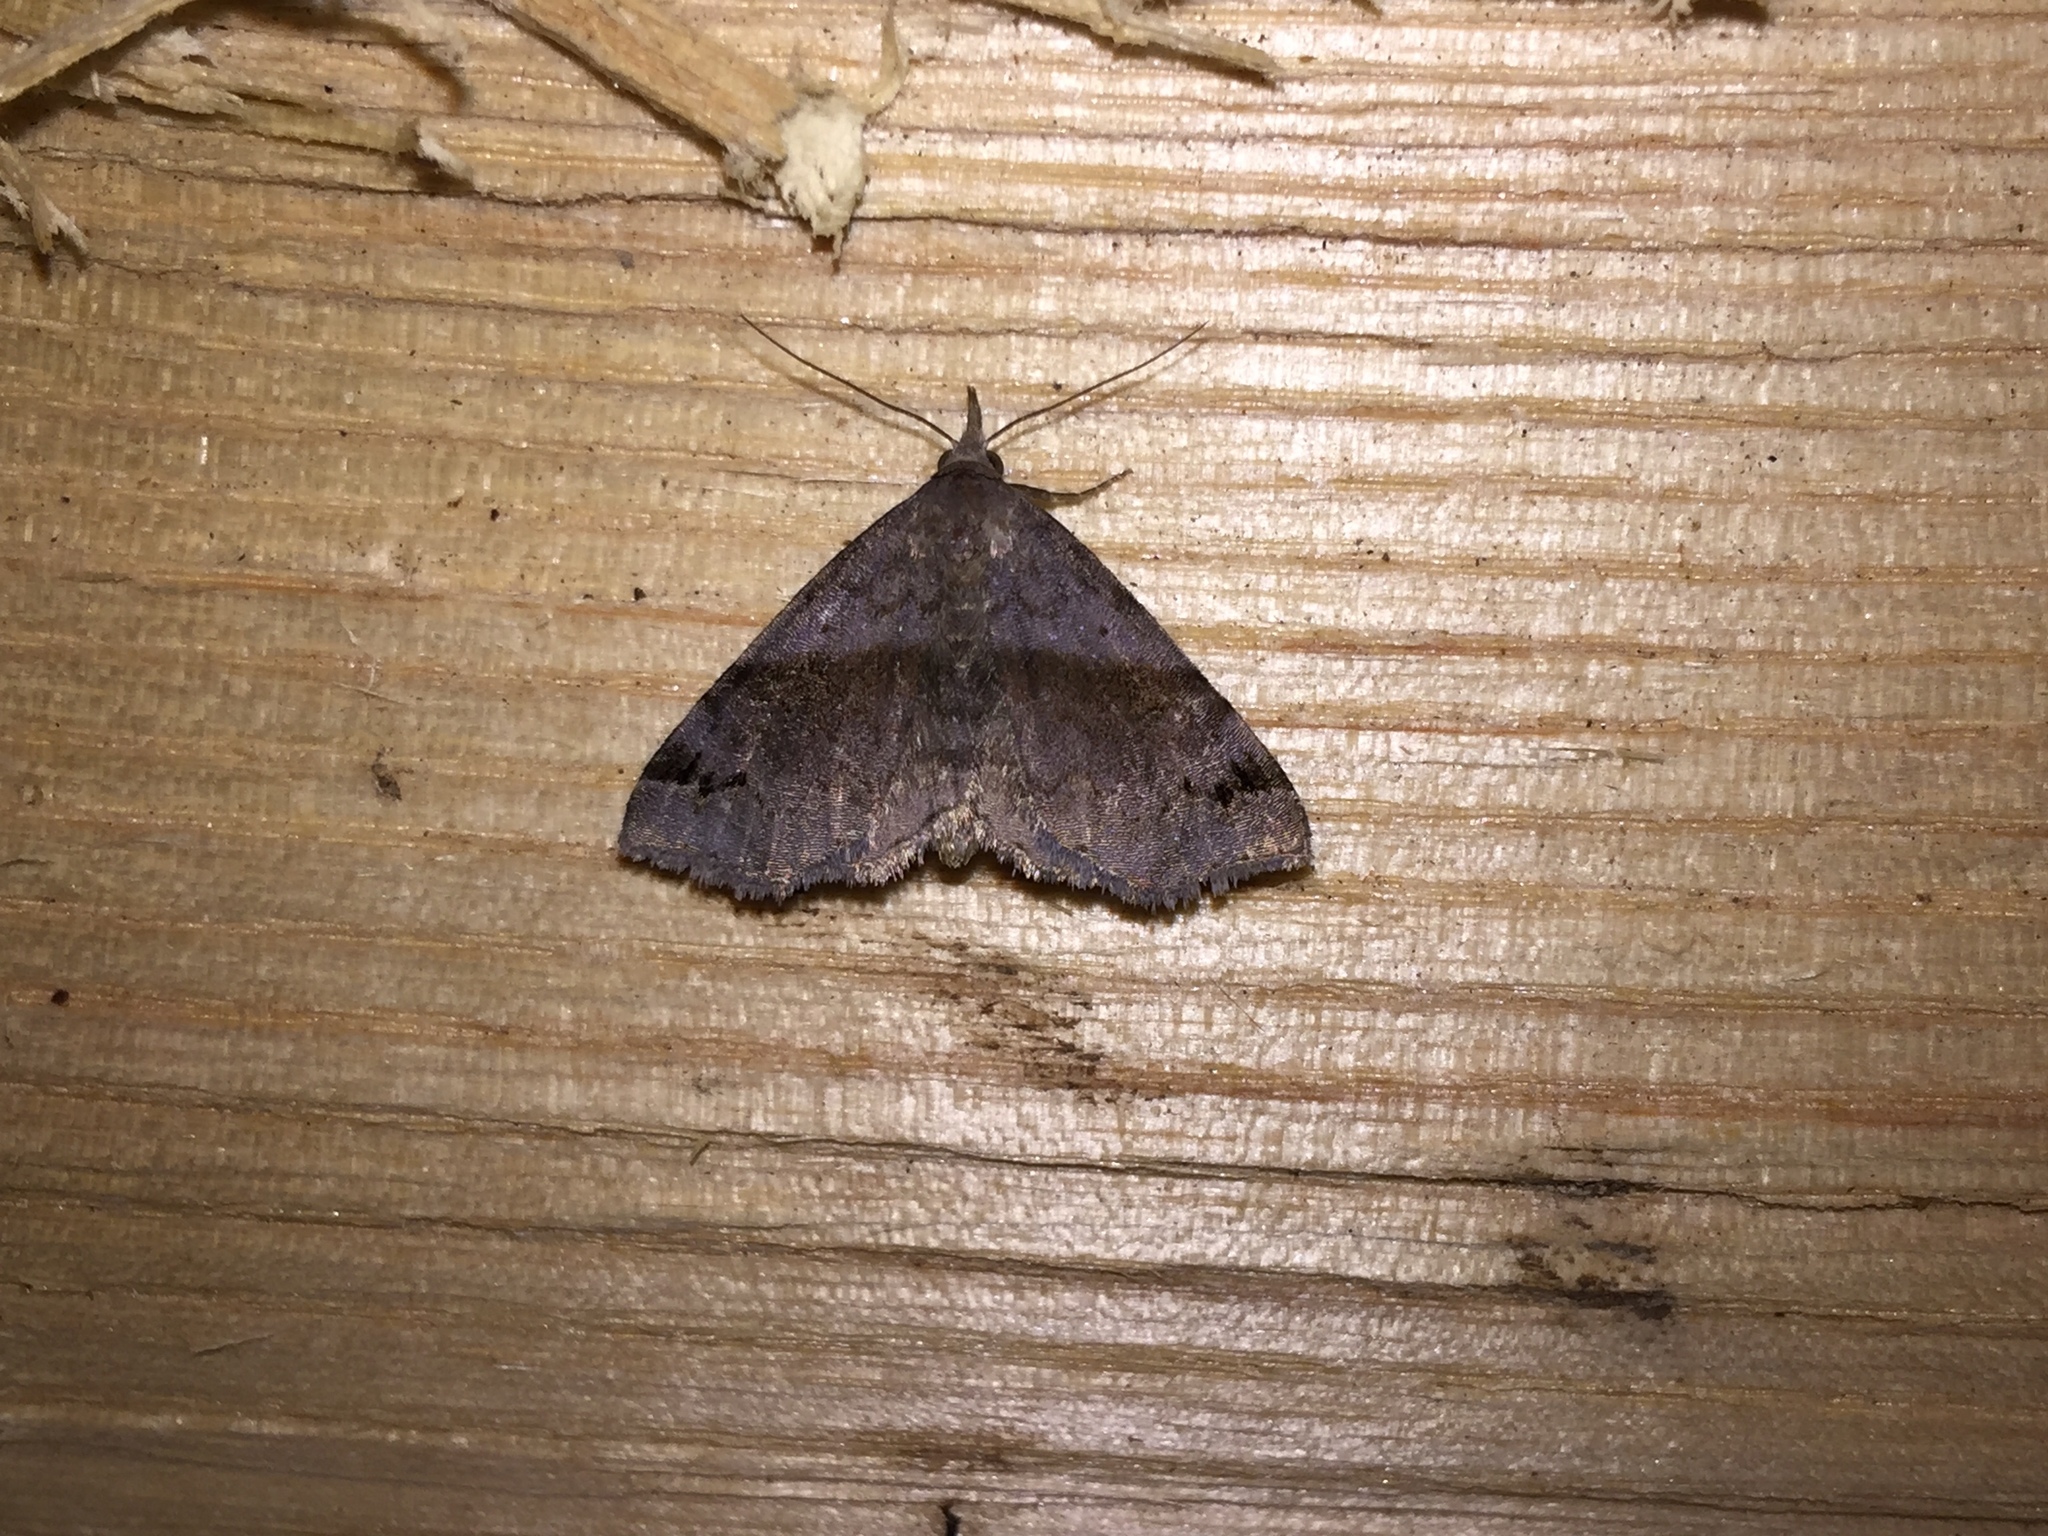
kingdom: Animalia
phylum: Arthropoda
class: Insecta
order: Lepidoptera
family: Erebidae
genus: Spargaloma
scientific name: Spargaloma sexpunctata
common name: Six-spotted gray
